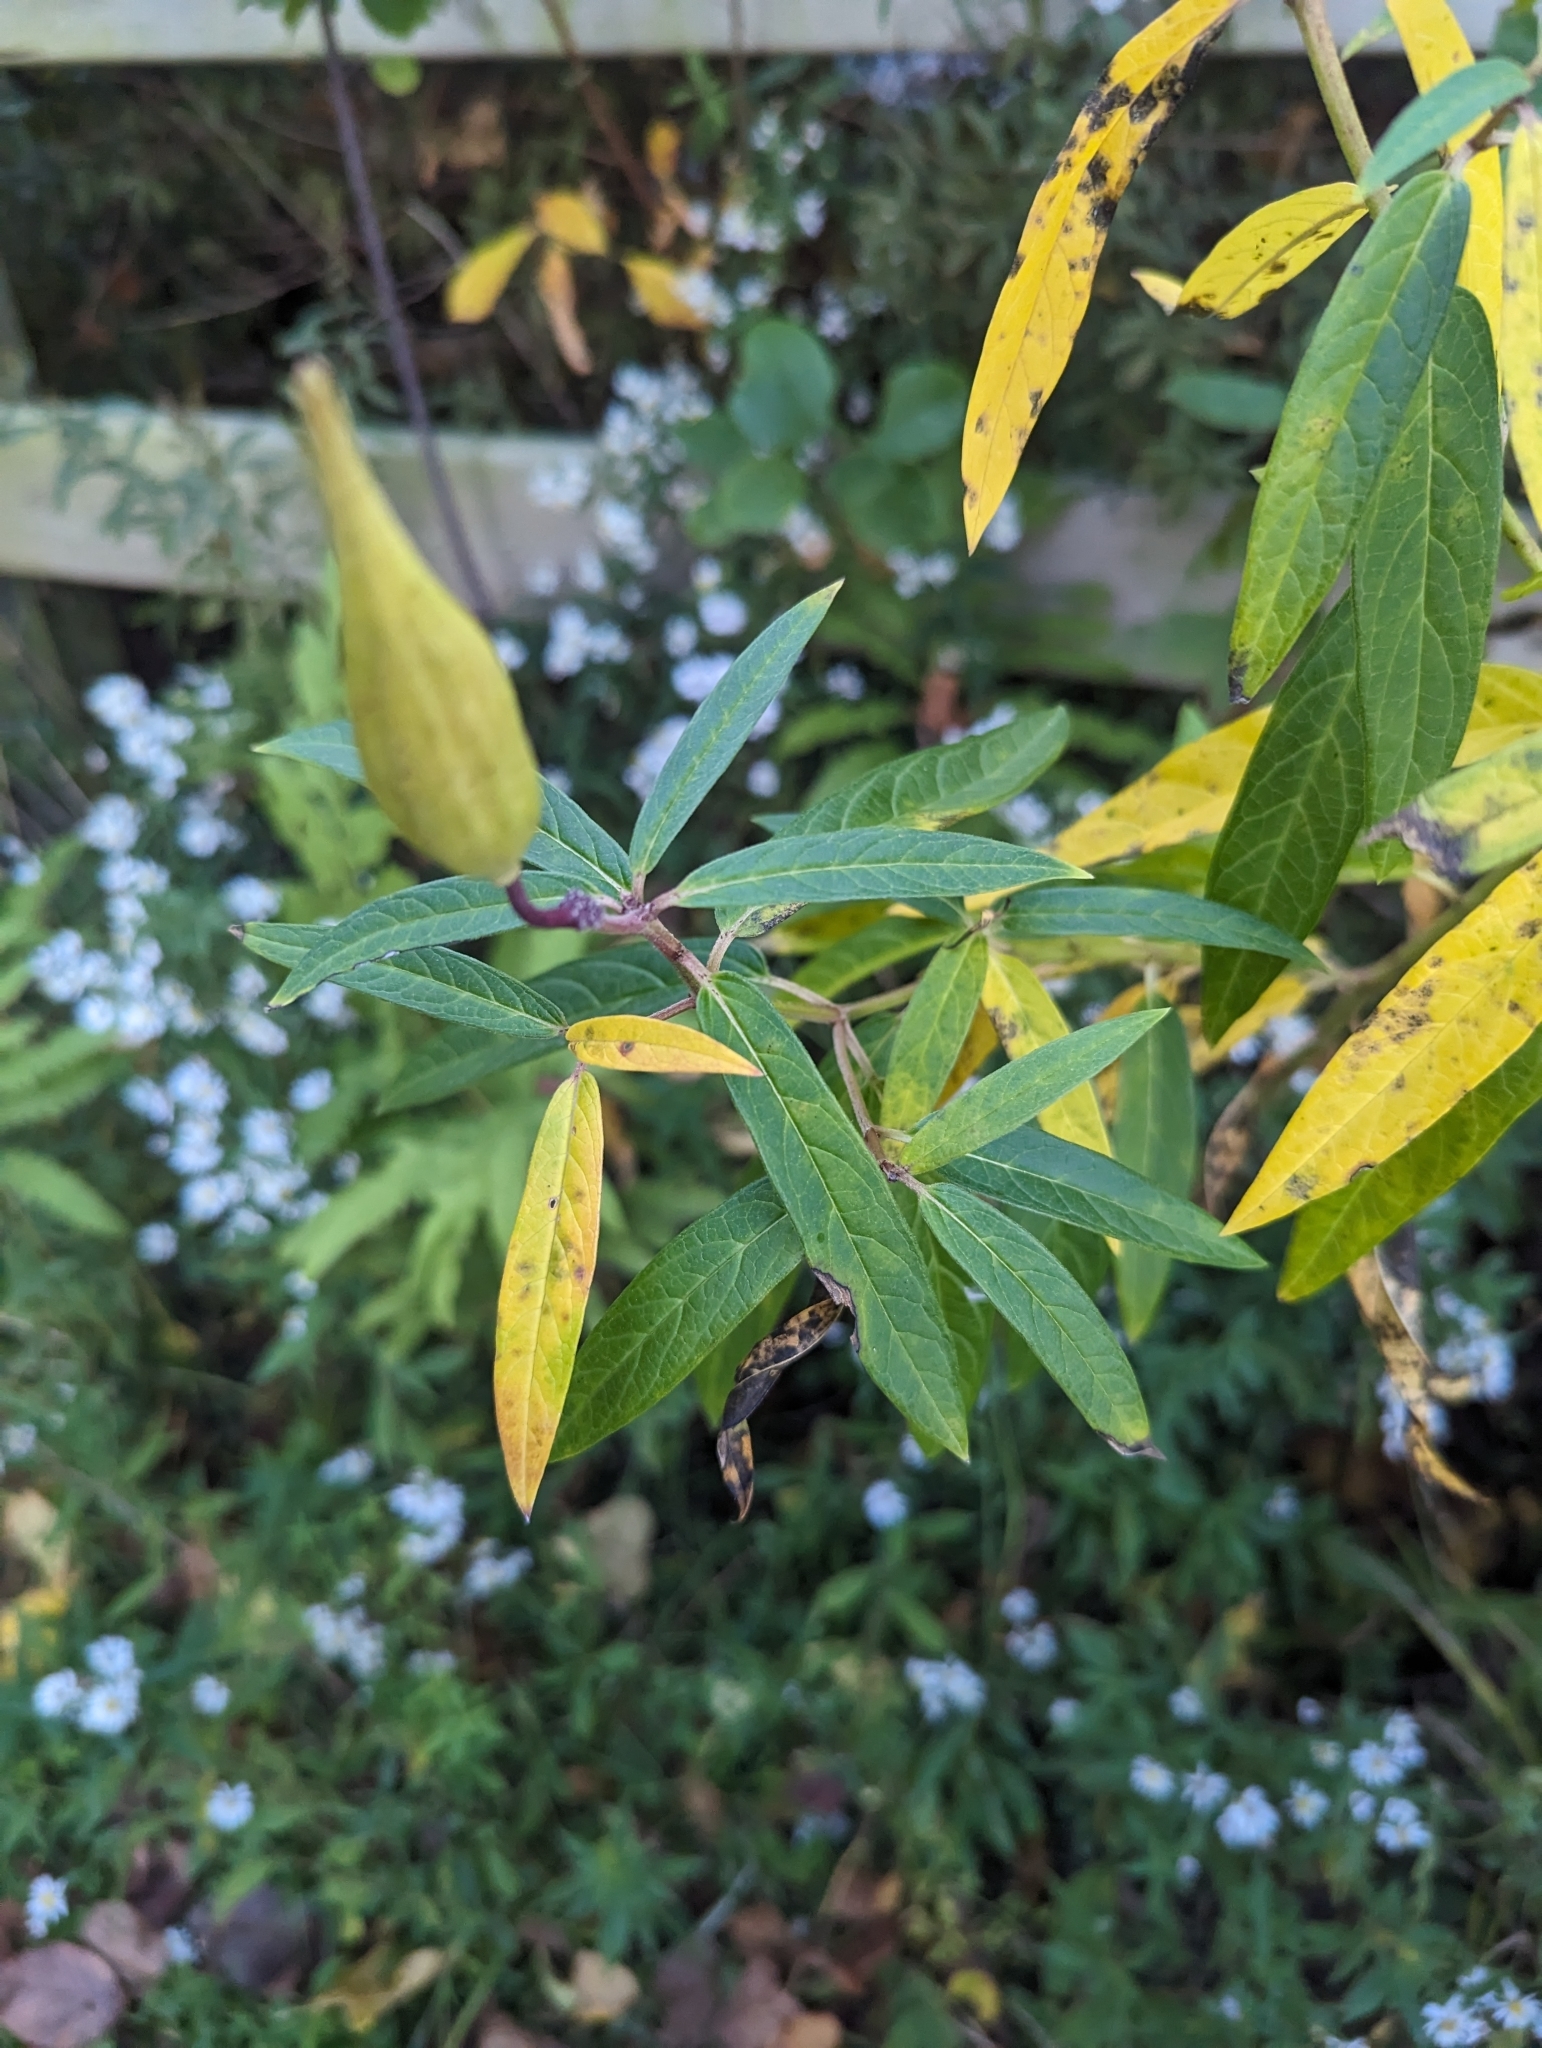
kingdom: Plantae
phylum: Tracheophyta
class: Magnoliopsida
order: Gentianales
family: Apocynaceae
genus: Asclepias
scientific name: Asclepias incarnata
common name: Swamp milkweed
